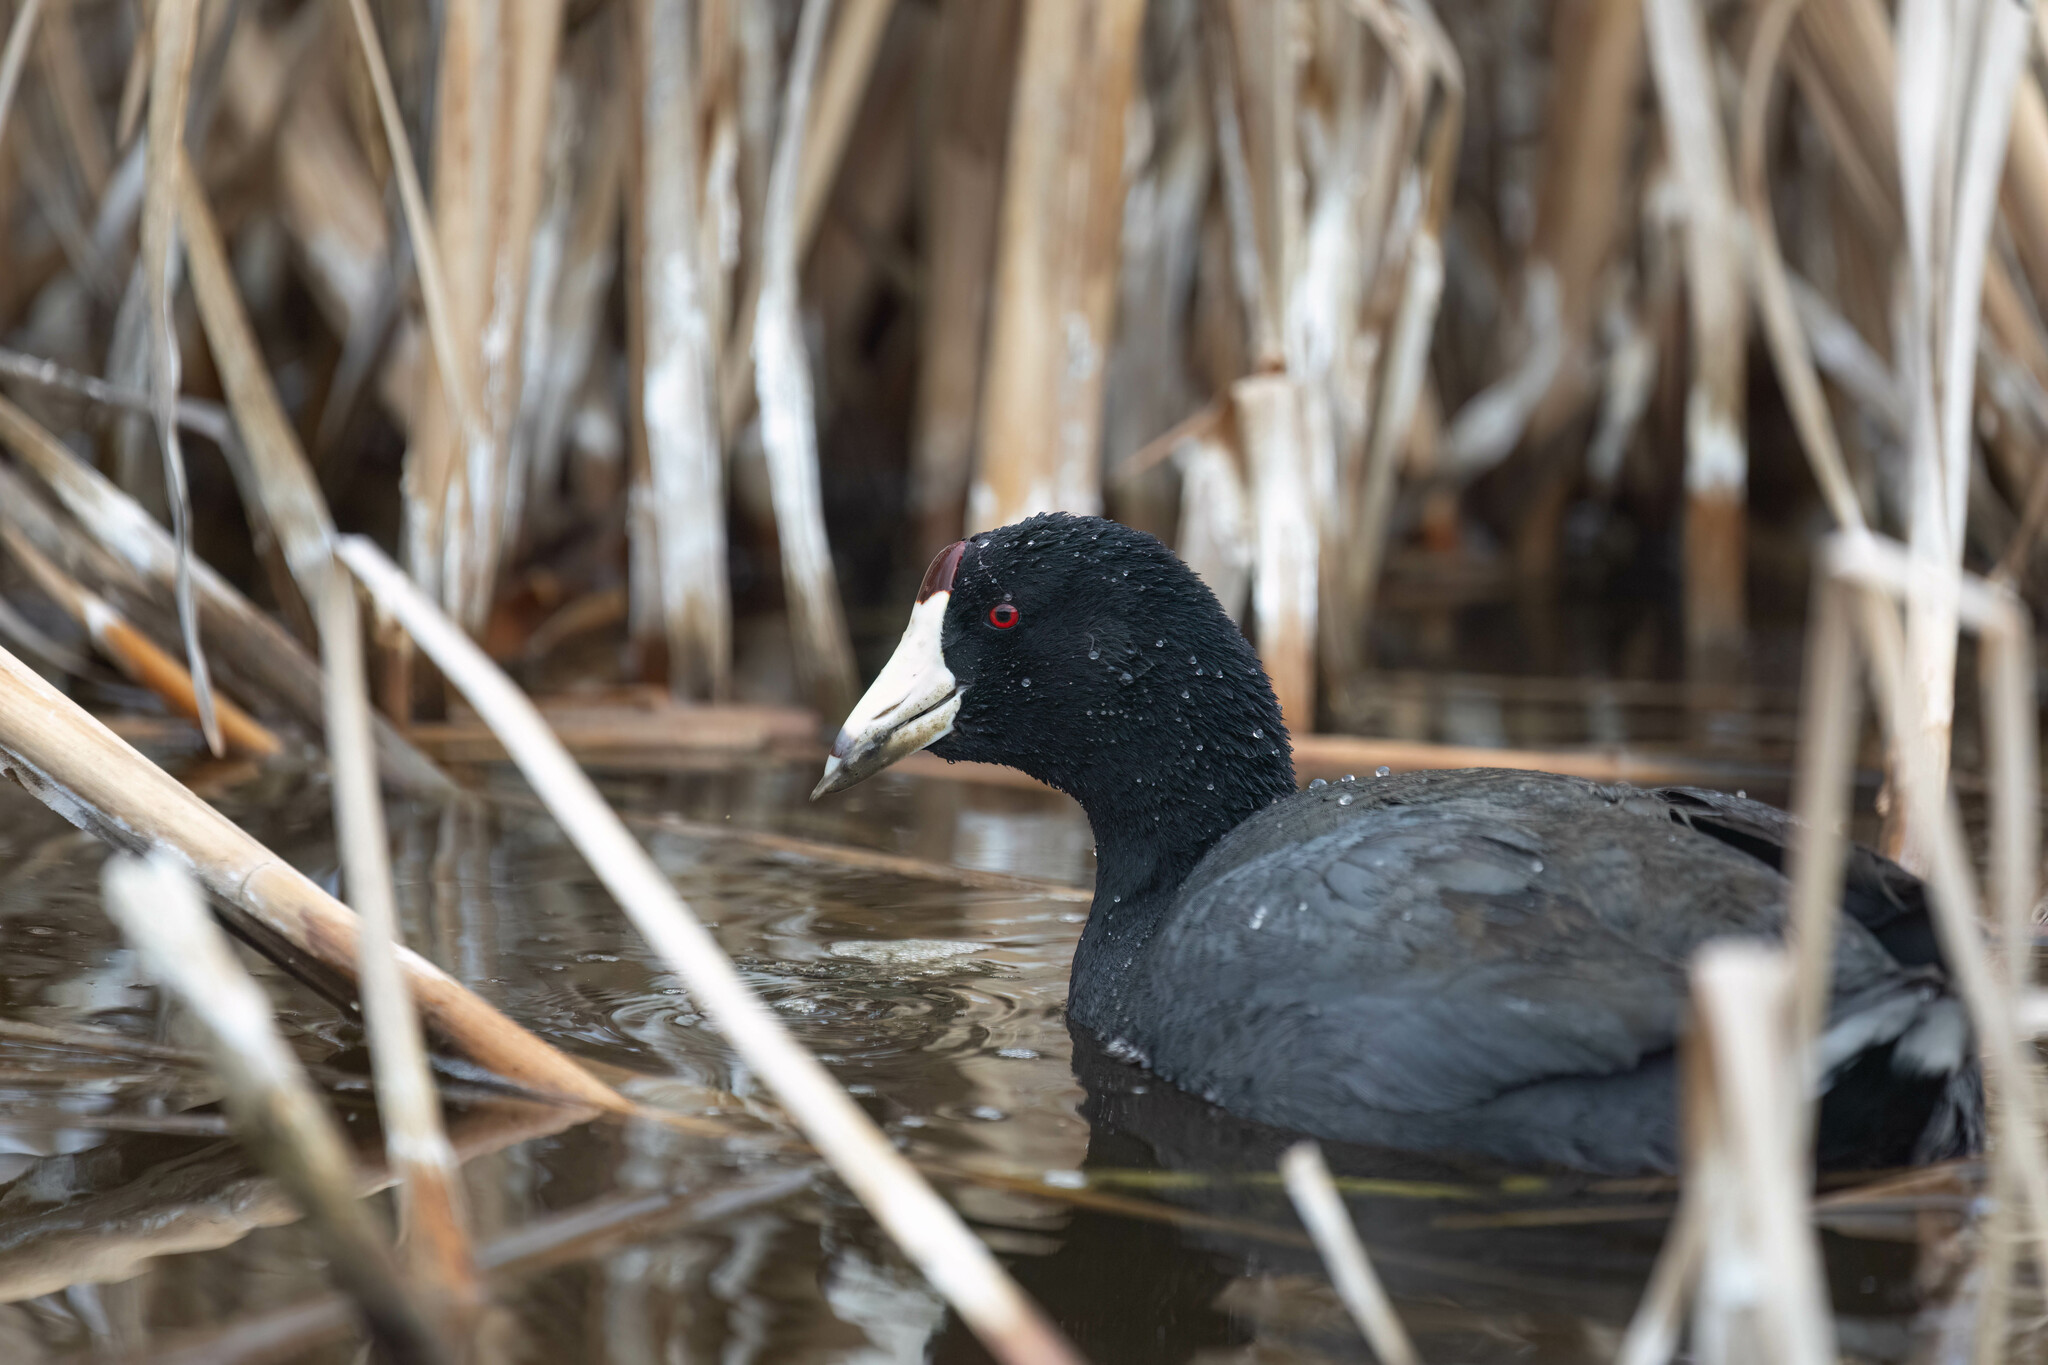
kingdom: Animalia
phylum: Chordata
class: Aves
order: Gruiformes
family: Rallidae
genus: Fulica
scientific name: Fulica americana
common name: American coot
